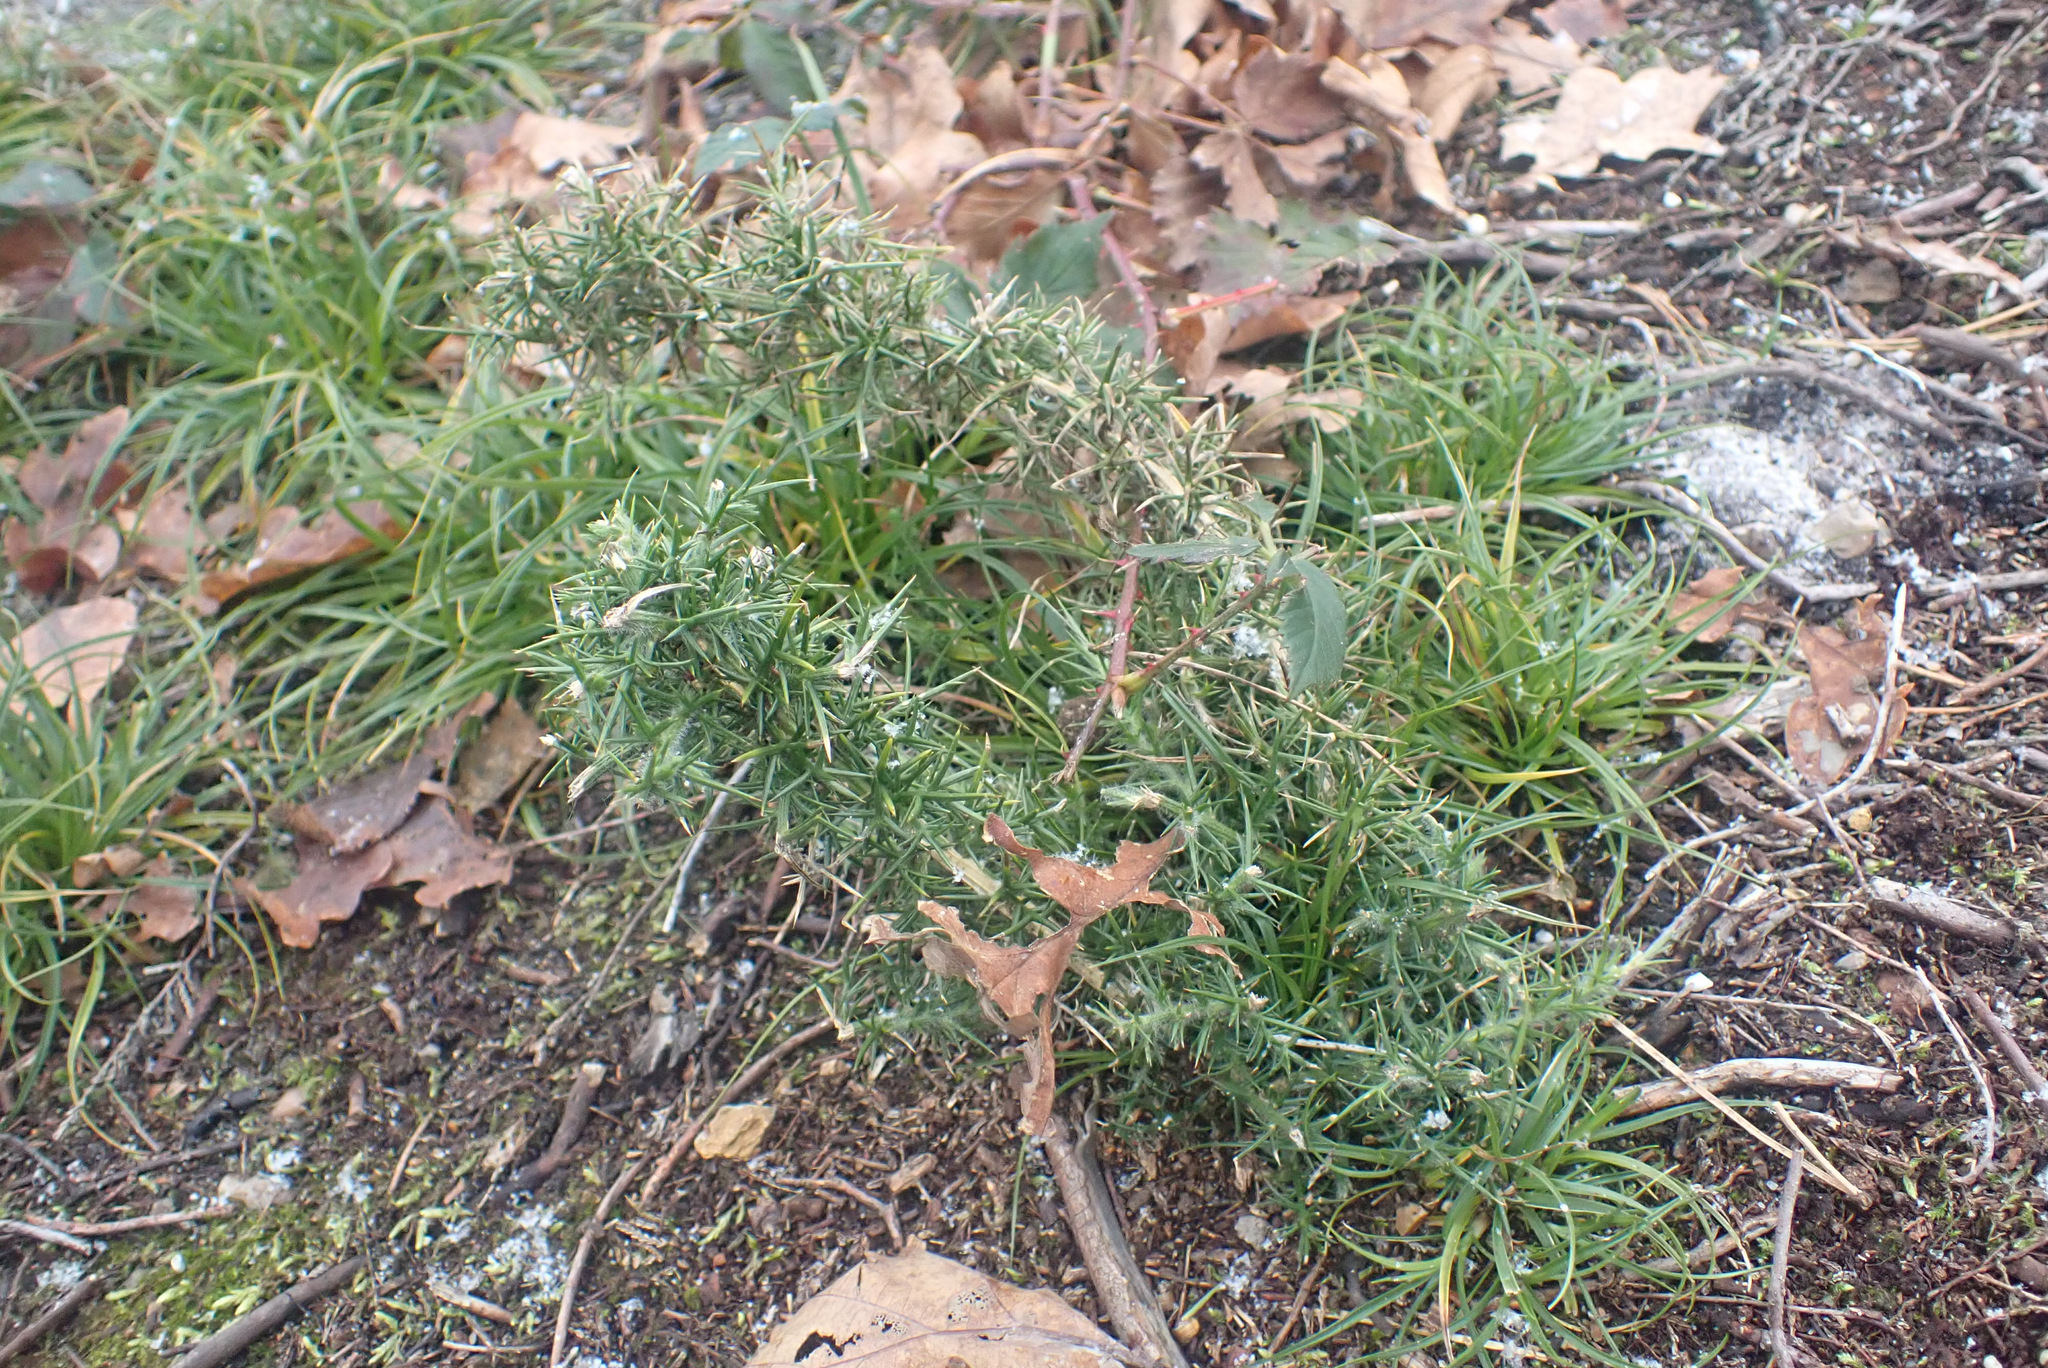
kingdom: Plantae
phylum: Tracheophyta
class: Magnoliopsida
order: Fabales
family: Fabaceae
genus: Ulex
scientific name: Ulex europaeus
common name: Common gorse
